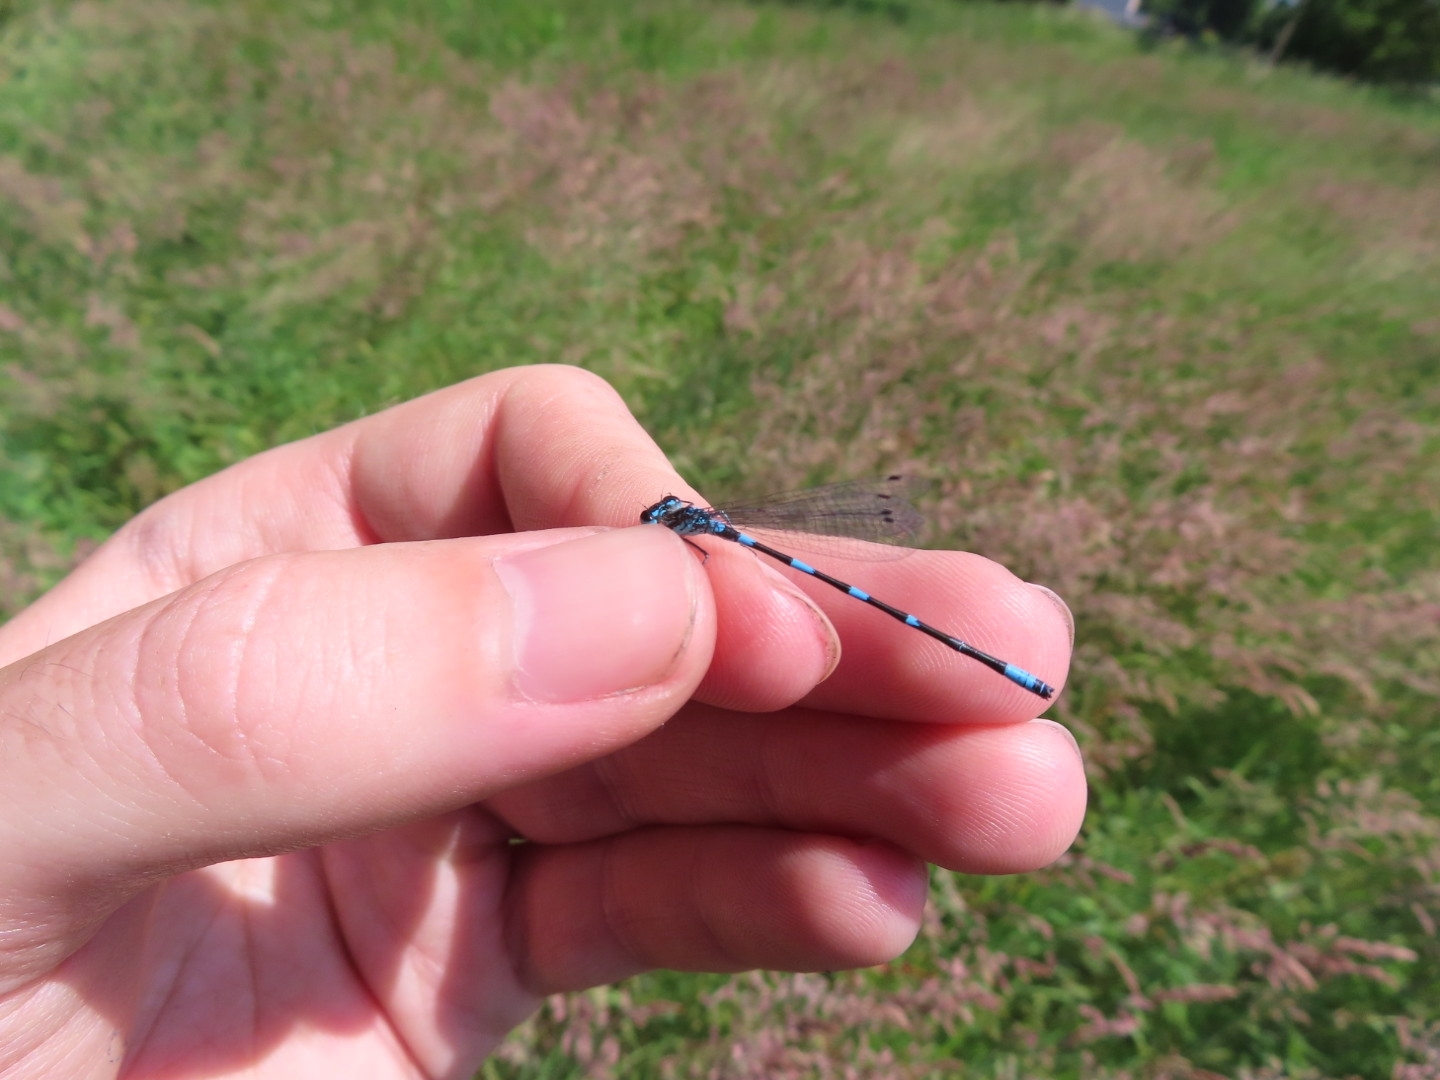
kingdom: Animalia
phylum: Arthropoda
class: Insecta
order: Odonata
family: Coenagrionidae
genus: Coenagrion
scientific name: Coenagrion pulchellum
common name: Variable bluet
